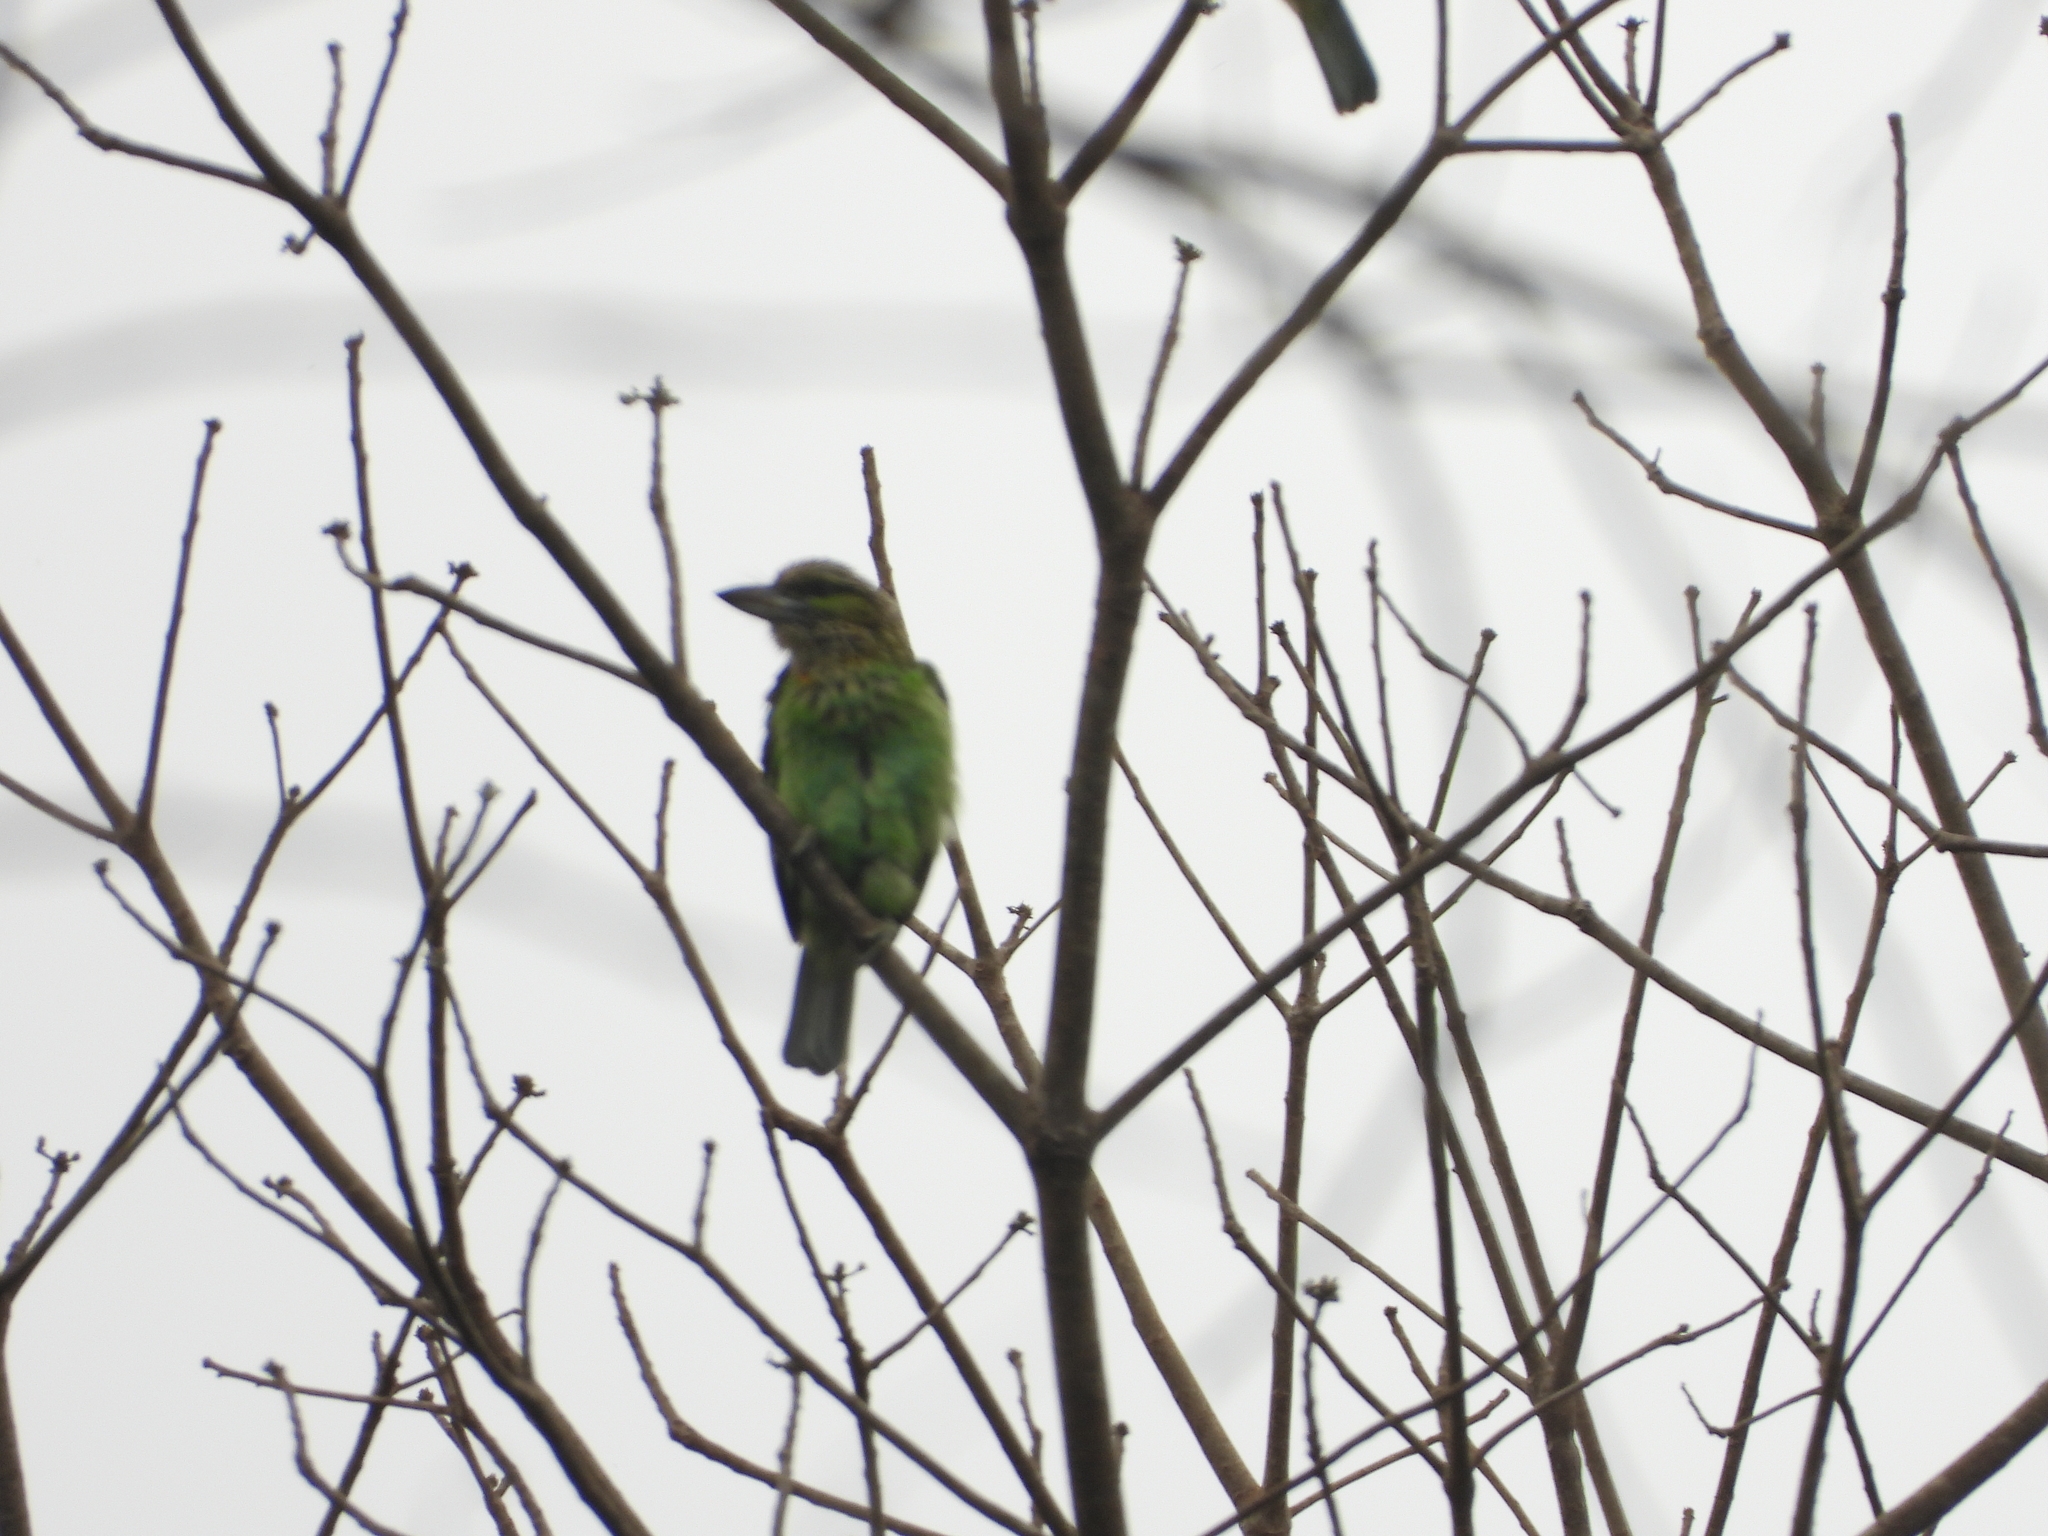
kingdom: Animalia
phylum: Chordata
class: Aves
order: Piciformes
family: Megalaimidae
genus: Psilopogon
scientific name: Psilopogon faiostrictus
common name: Green-eared barbet
